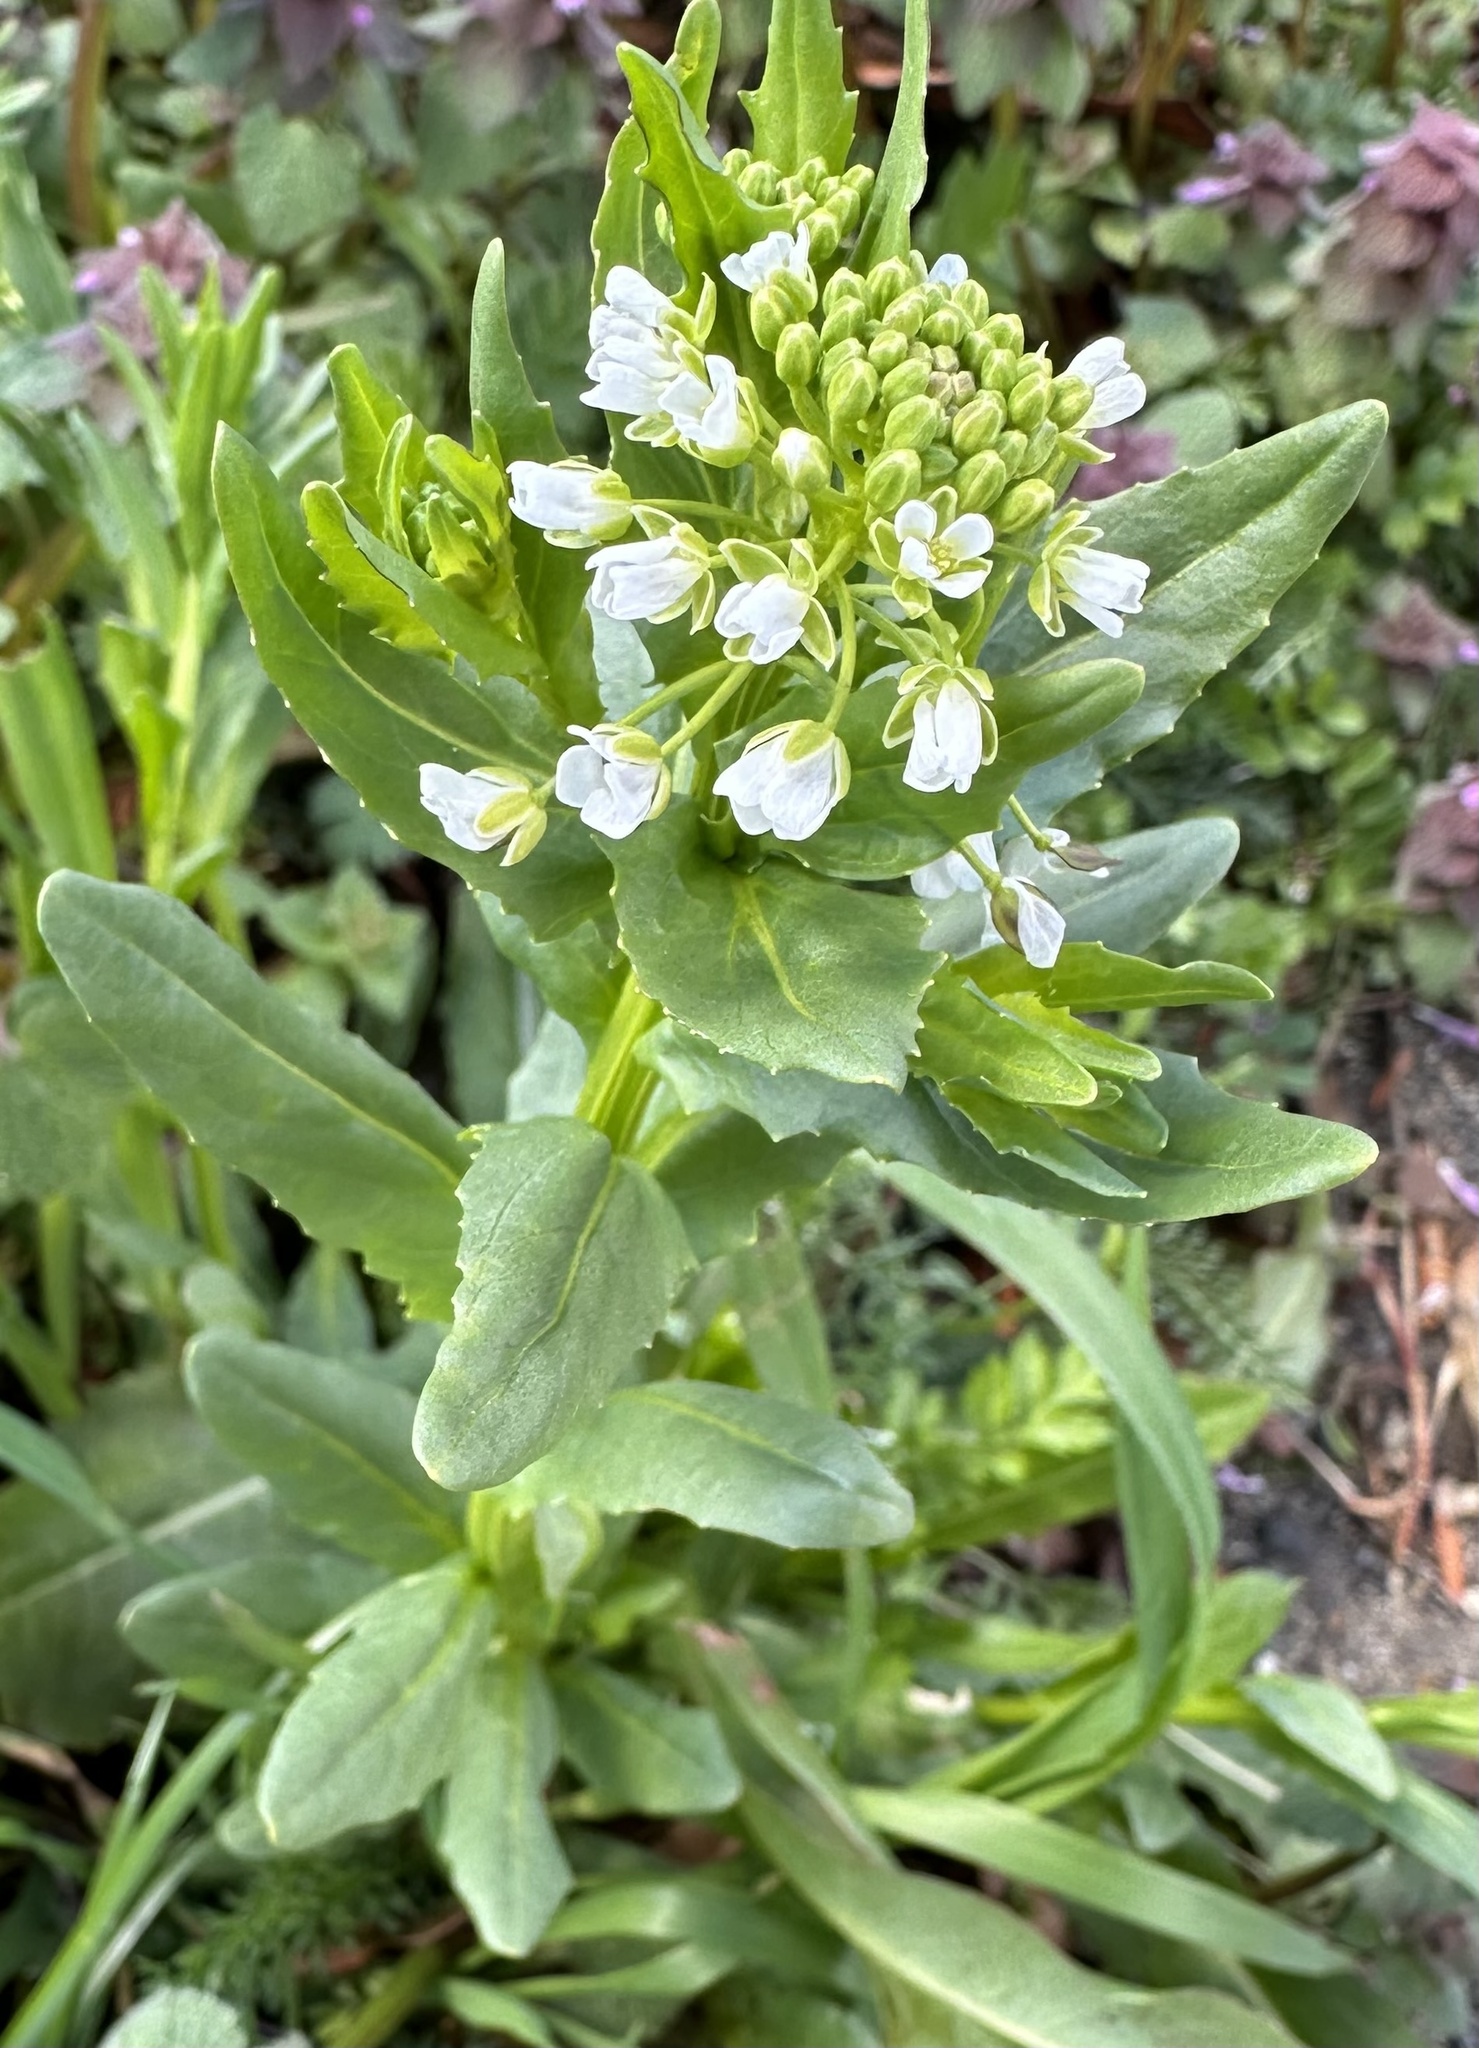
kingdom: Plantae
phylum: Tracheophyta
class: Magnoliopsida
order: Brassicales
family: Brassicaceae
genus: Thlaspi
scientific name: Thlaspi arvense
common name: Field pennycress
